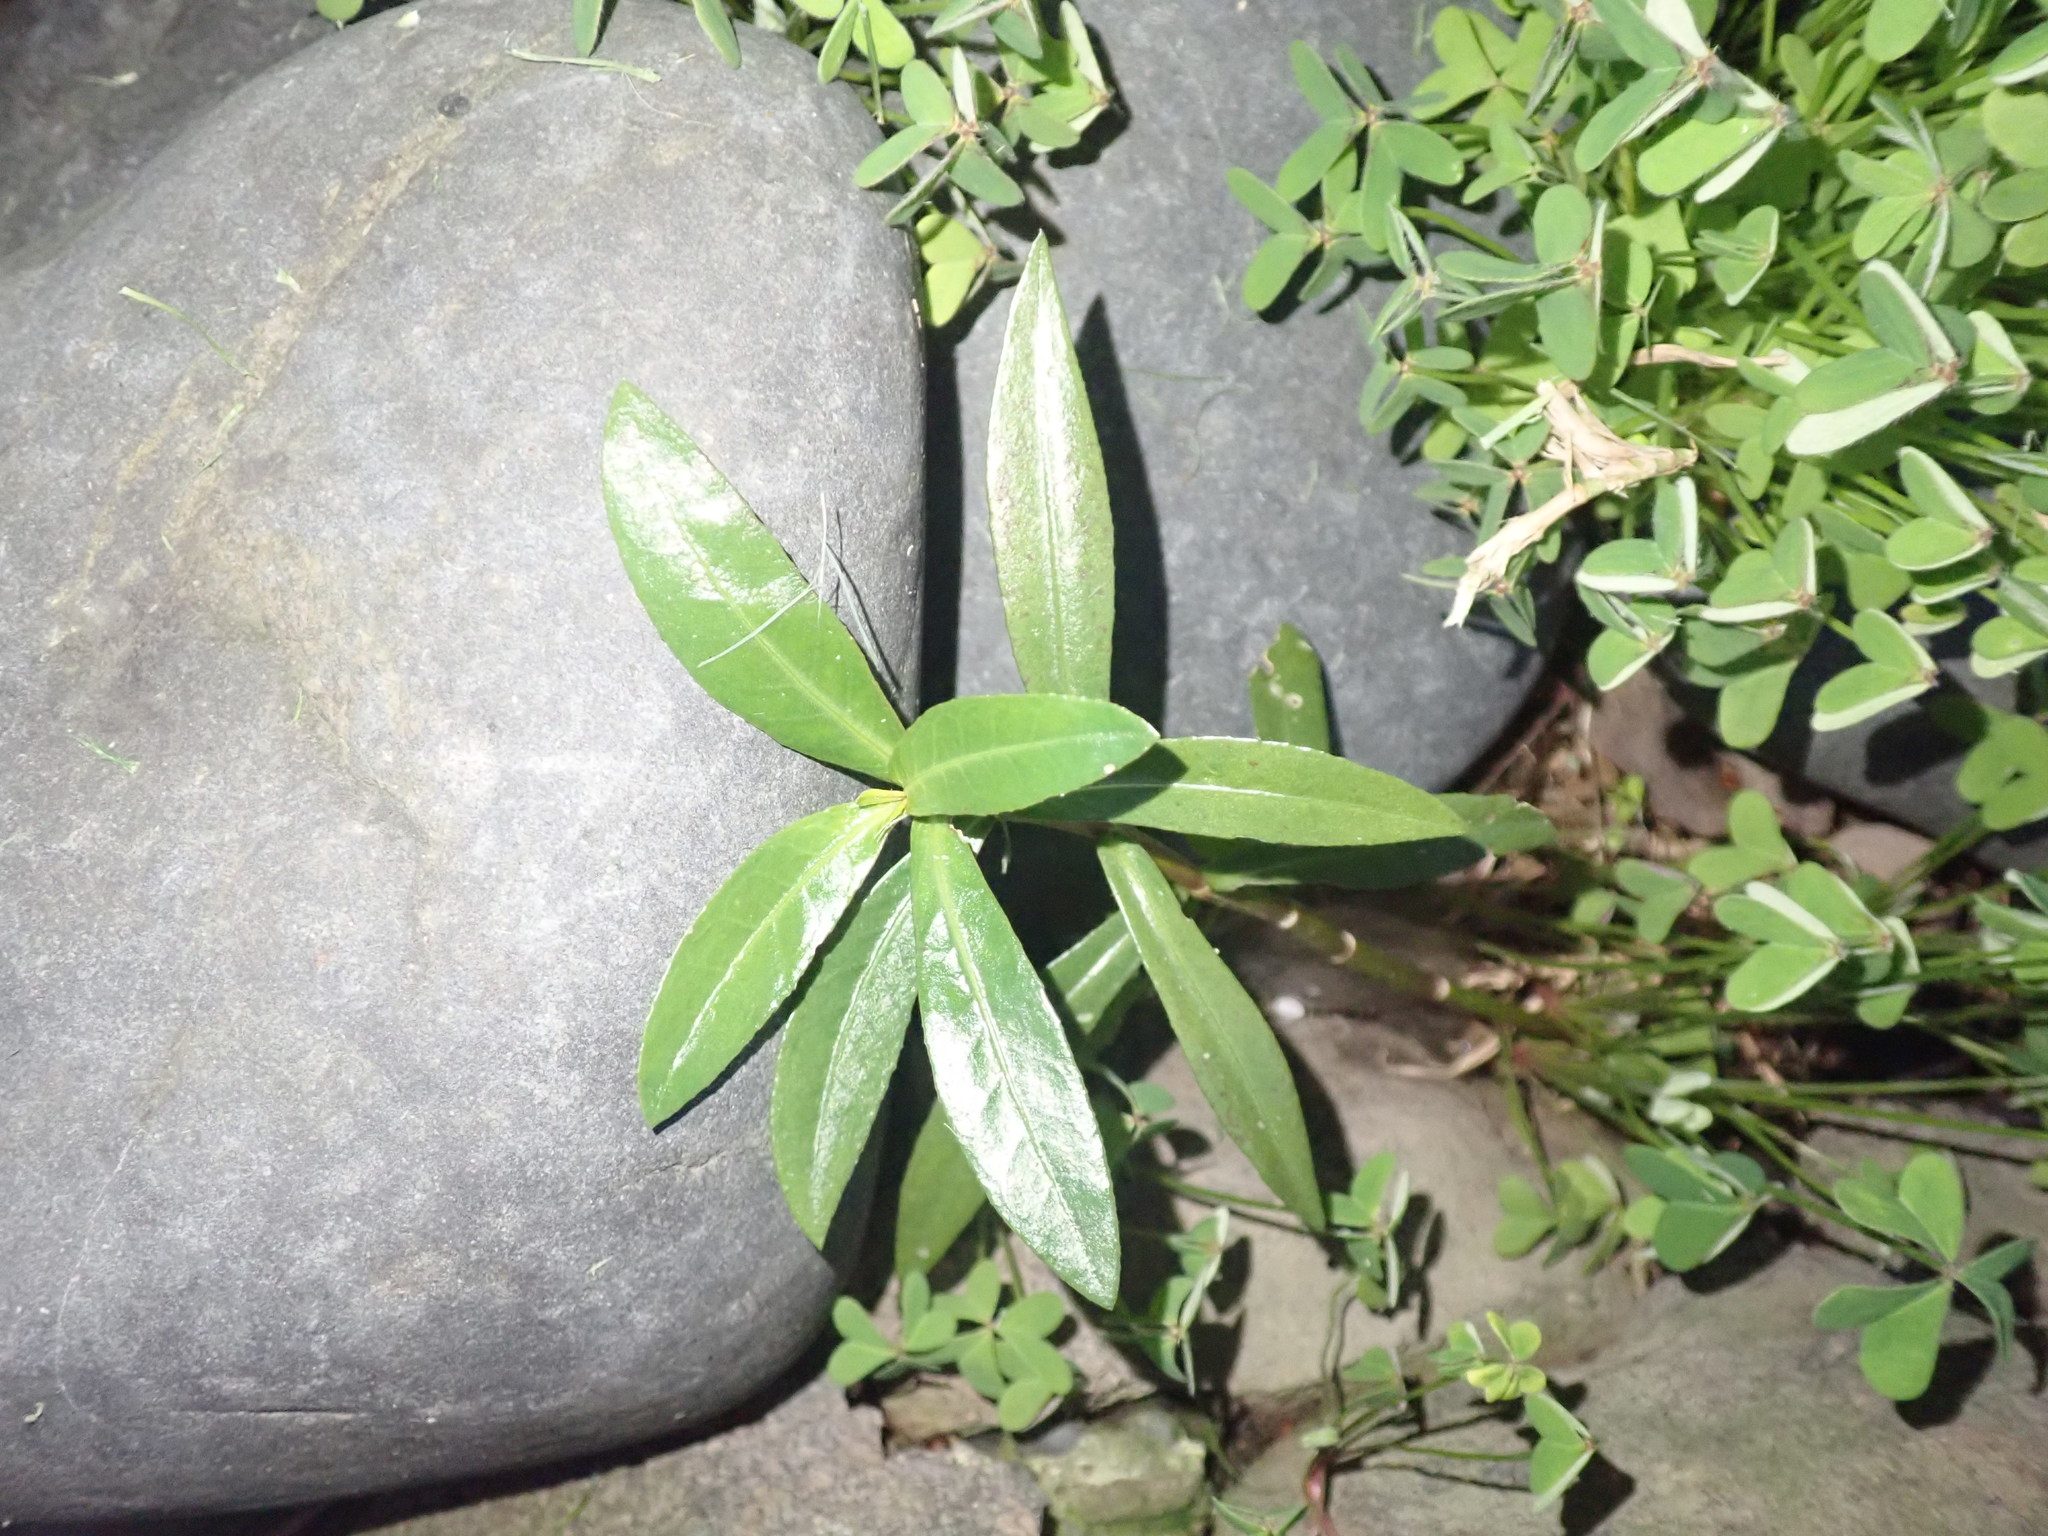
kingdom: Plantae
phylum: Tracheophyta
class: Magnoliopsida
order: Caryophyllales
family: Amaranthaceae
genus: Alternanthera
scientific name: Alternanthera philoxeroides
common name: Alligatorweed
